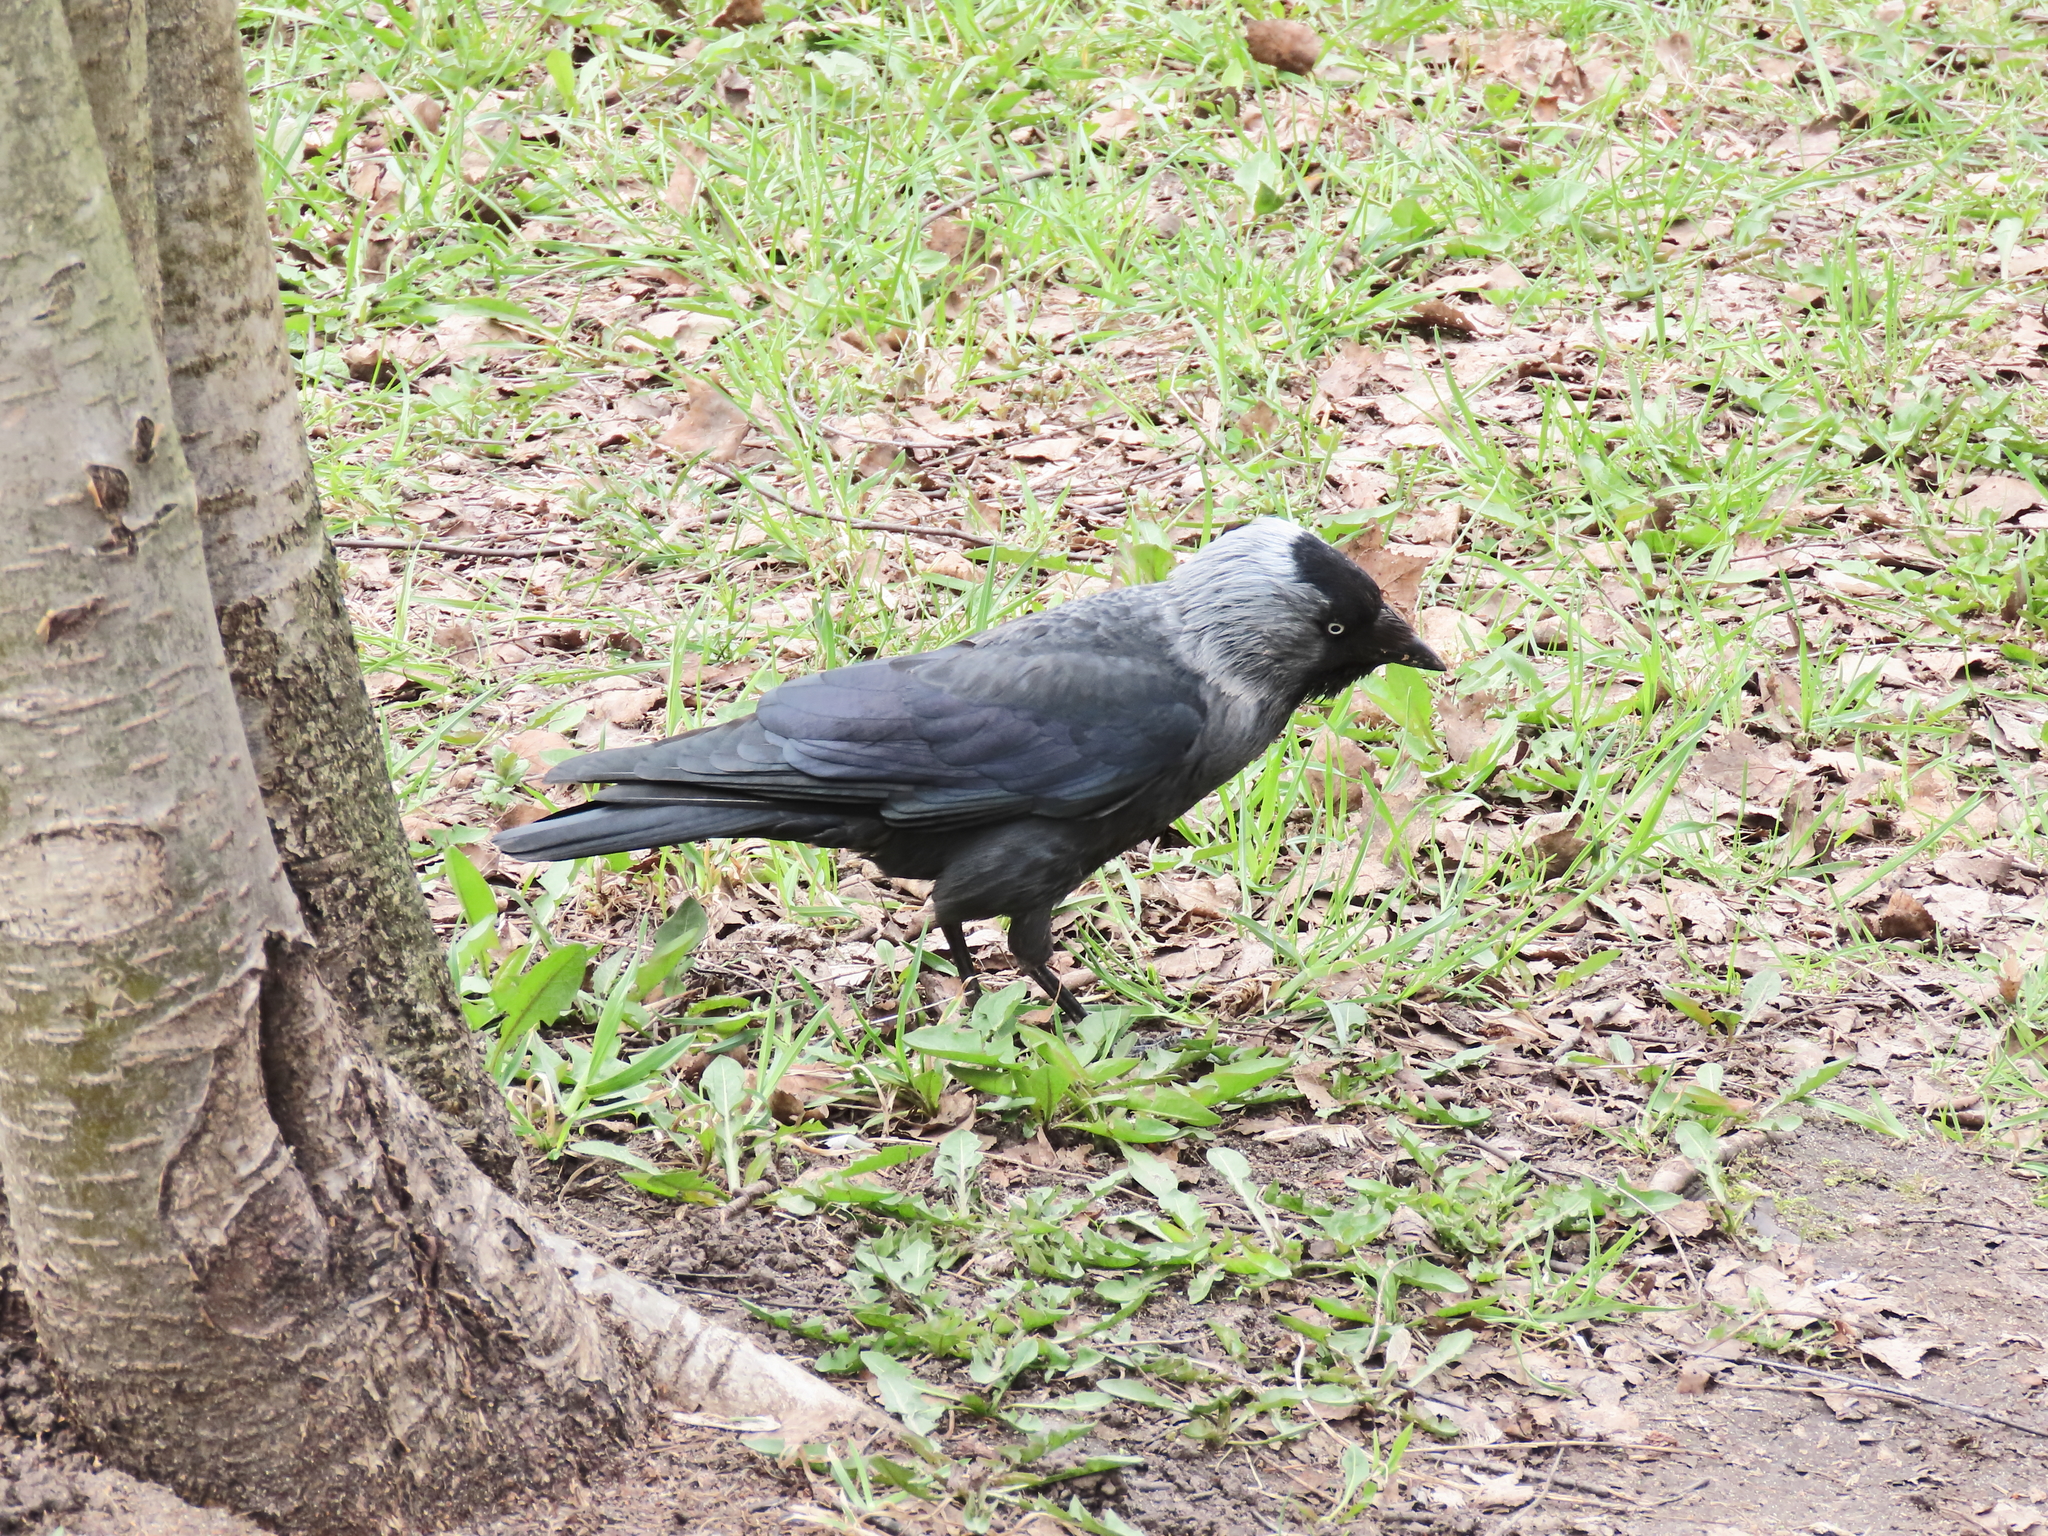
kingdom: Animalia
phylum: Chordata
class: Aves
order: Passeriformes
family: Corvidae
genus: Coloeus
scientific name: Coloeus monedula
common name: Western jackdaw
